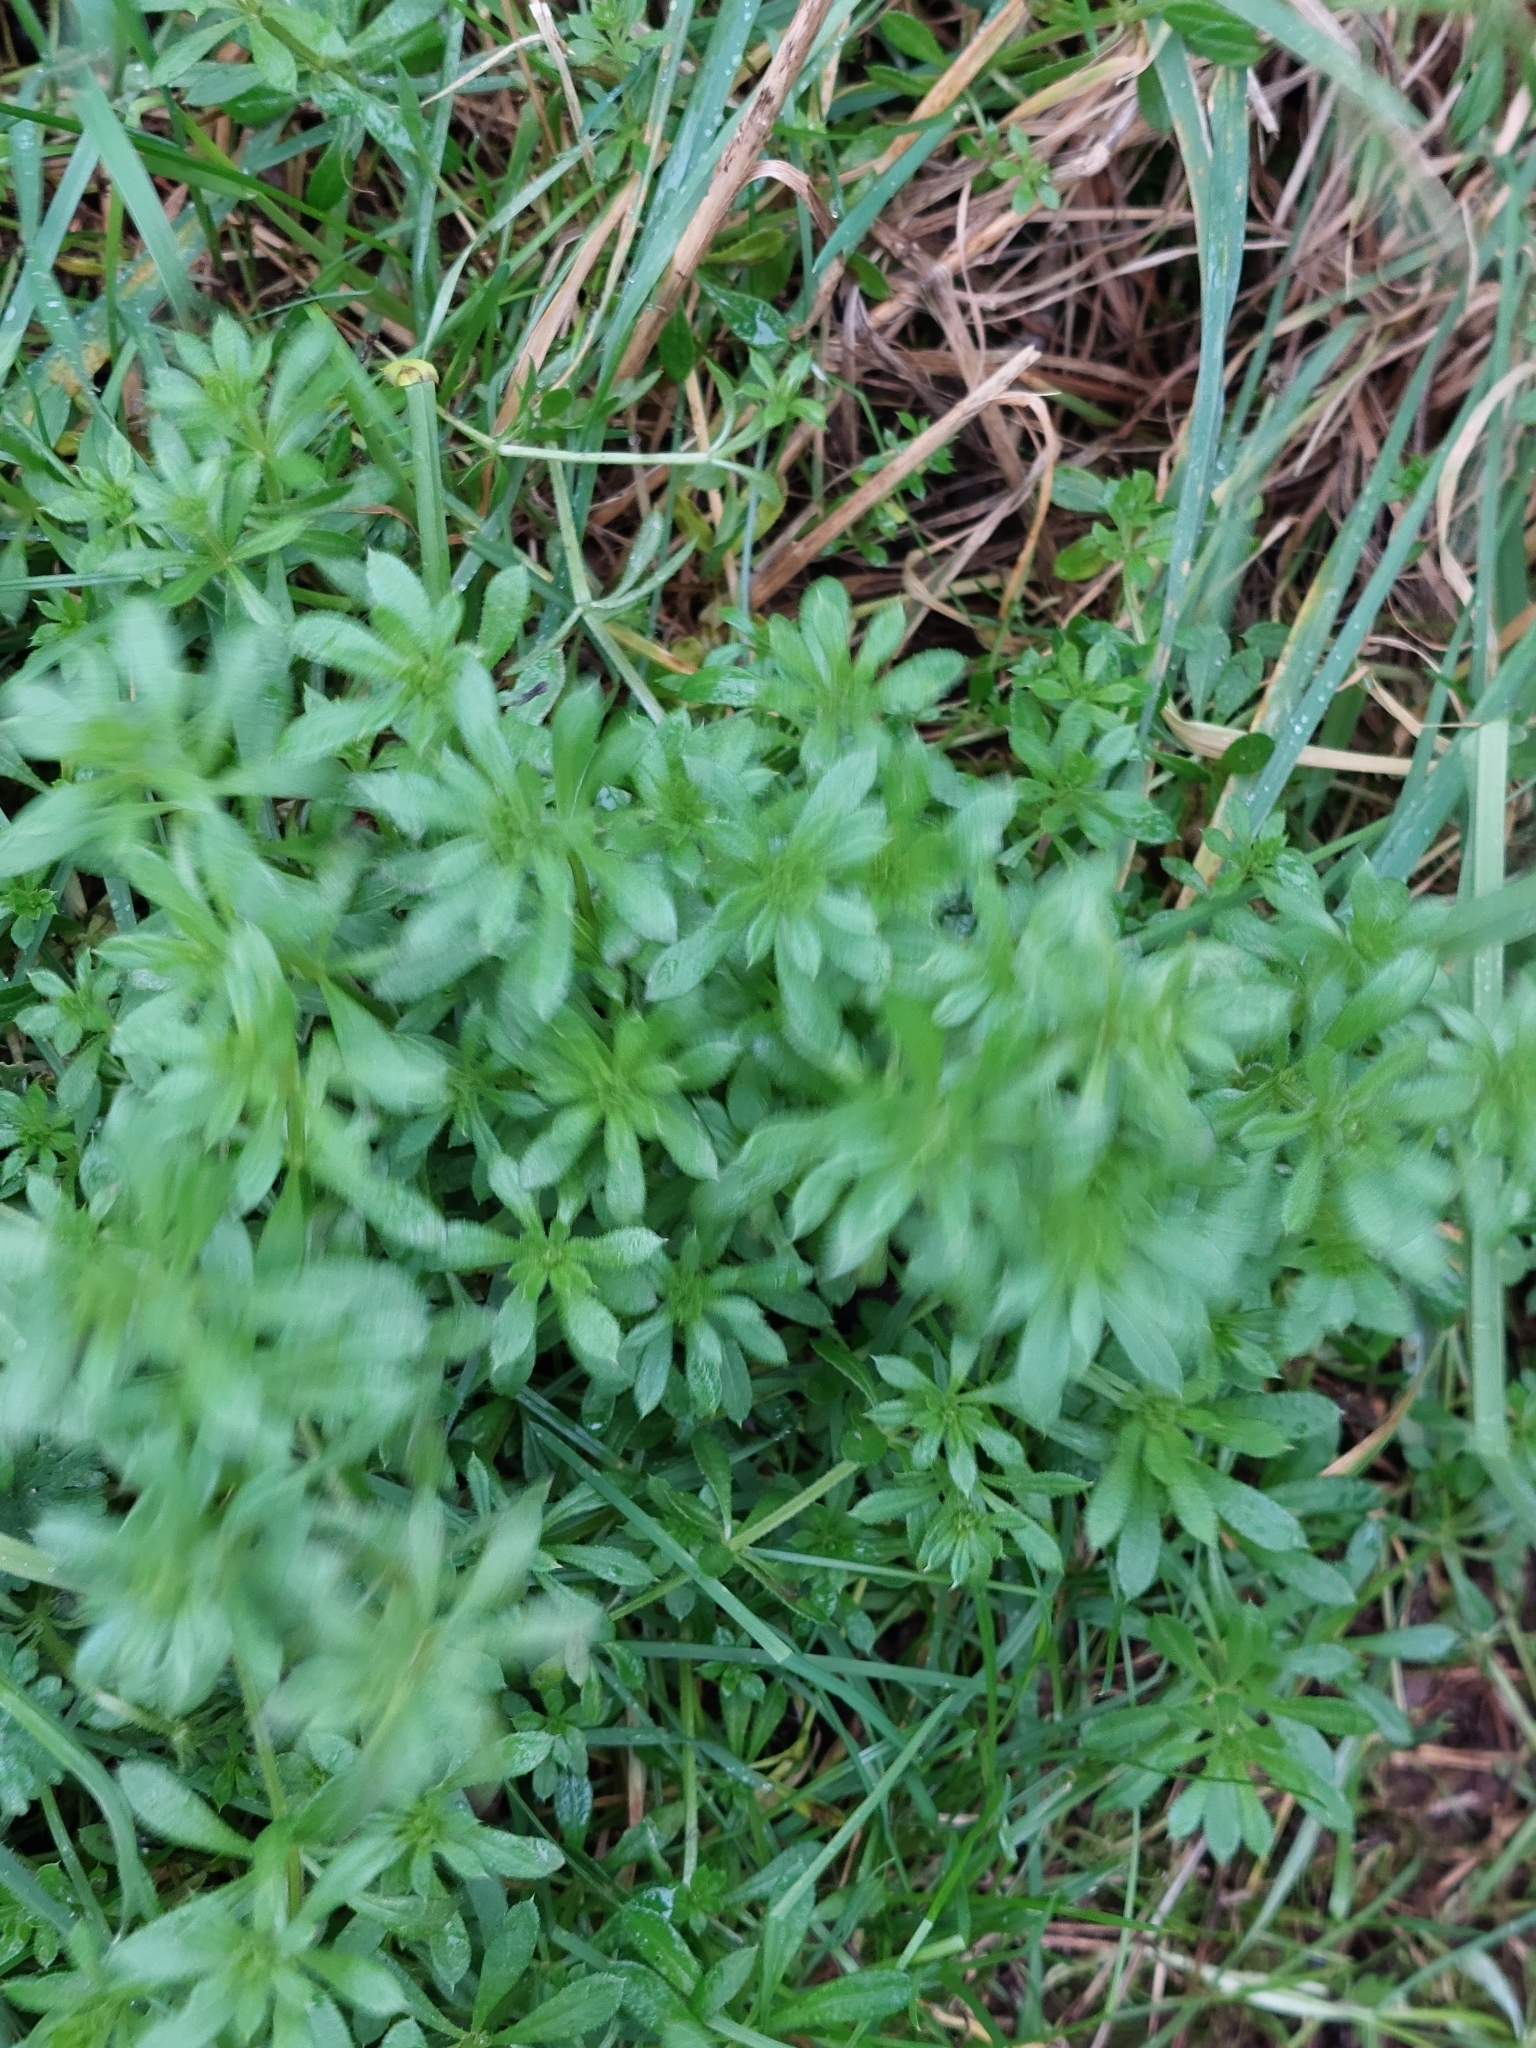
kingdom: Plantae
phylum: Tracheophyta
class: Magnoliopsida
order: Gentianales
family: Rubiaceae
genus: Galium
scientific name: Galium aparine
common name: Cleavers
